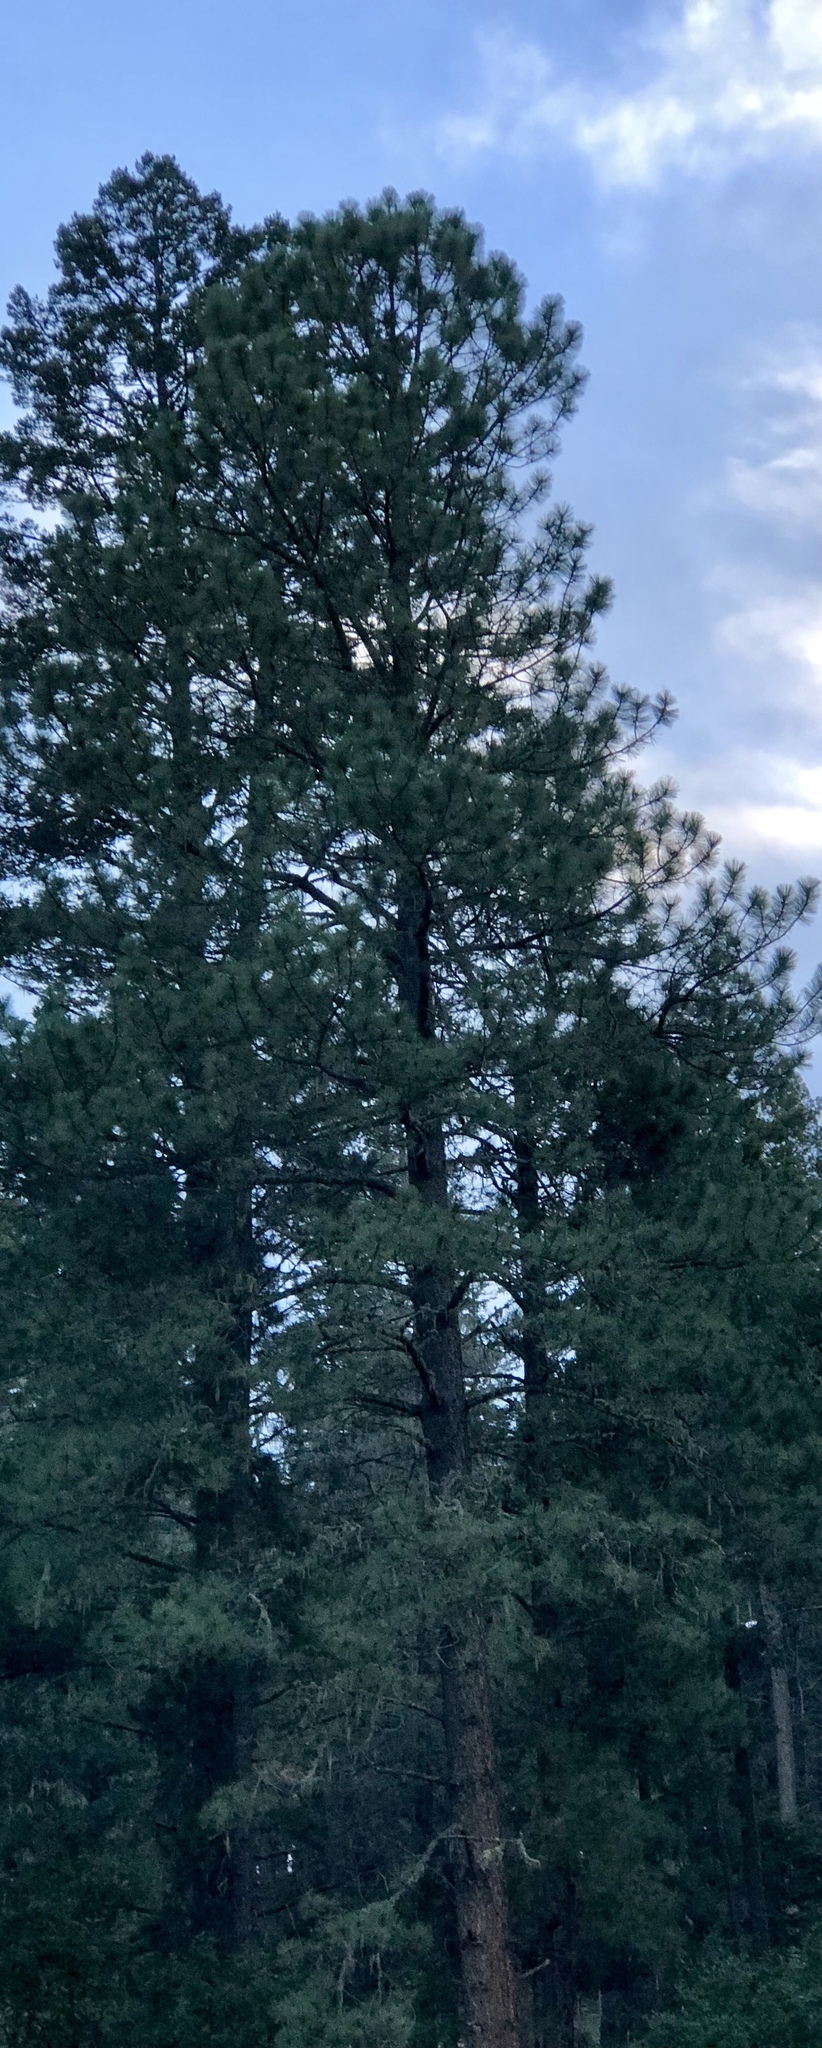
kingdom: Plantae
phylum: Tracheophyta
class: Pinopsida
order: Pinales
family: Pinaceae
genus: Pinus
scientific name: Pinus ponderosa
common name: Western yellow-pine
